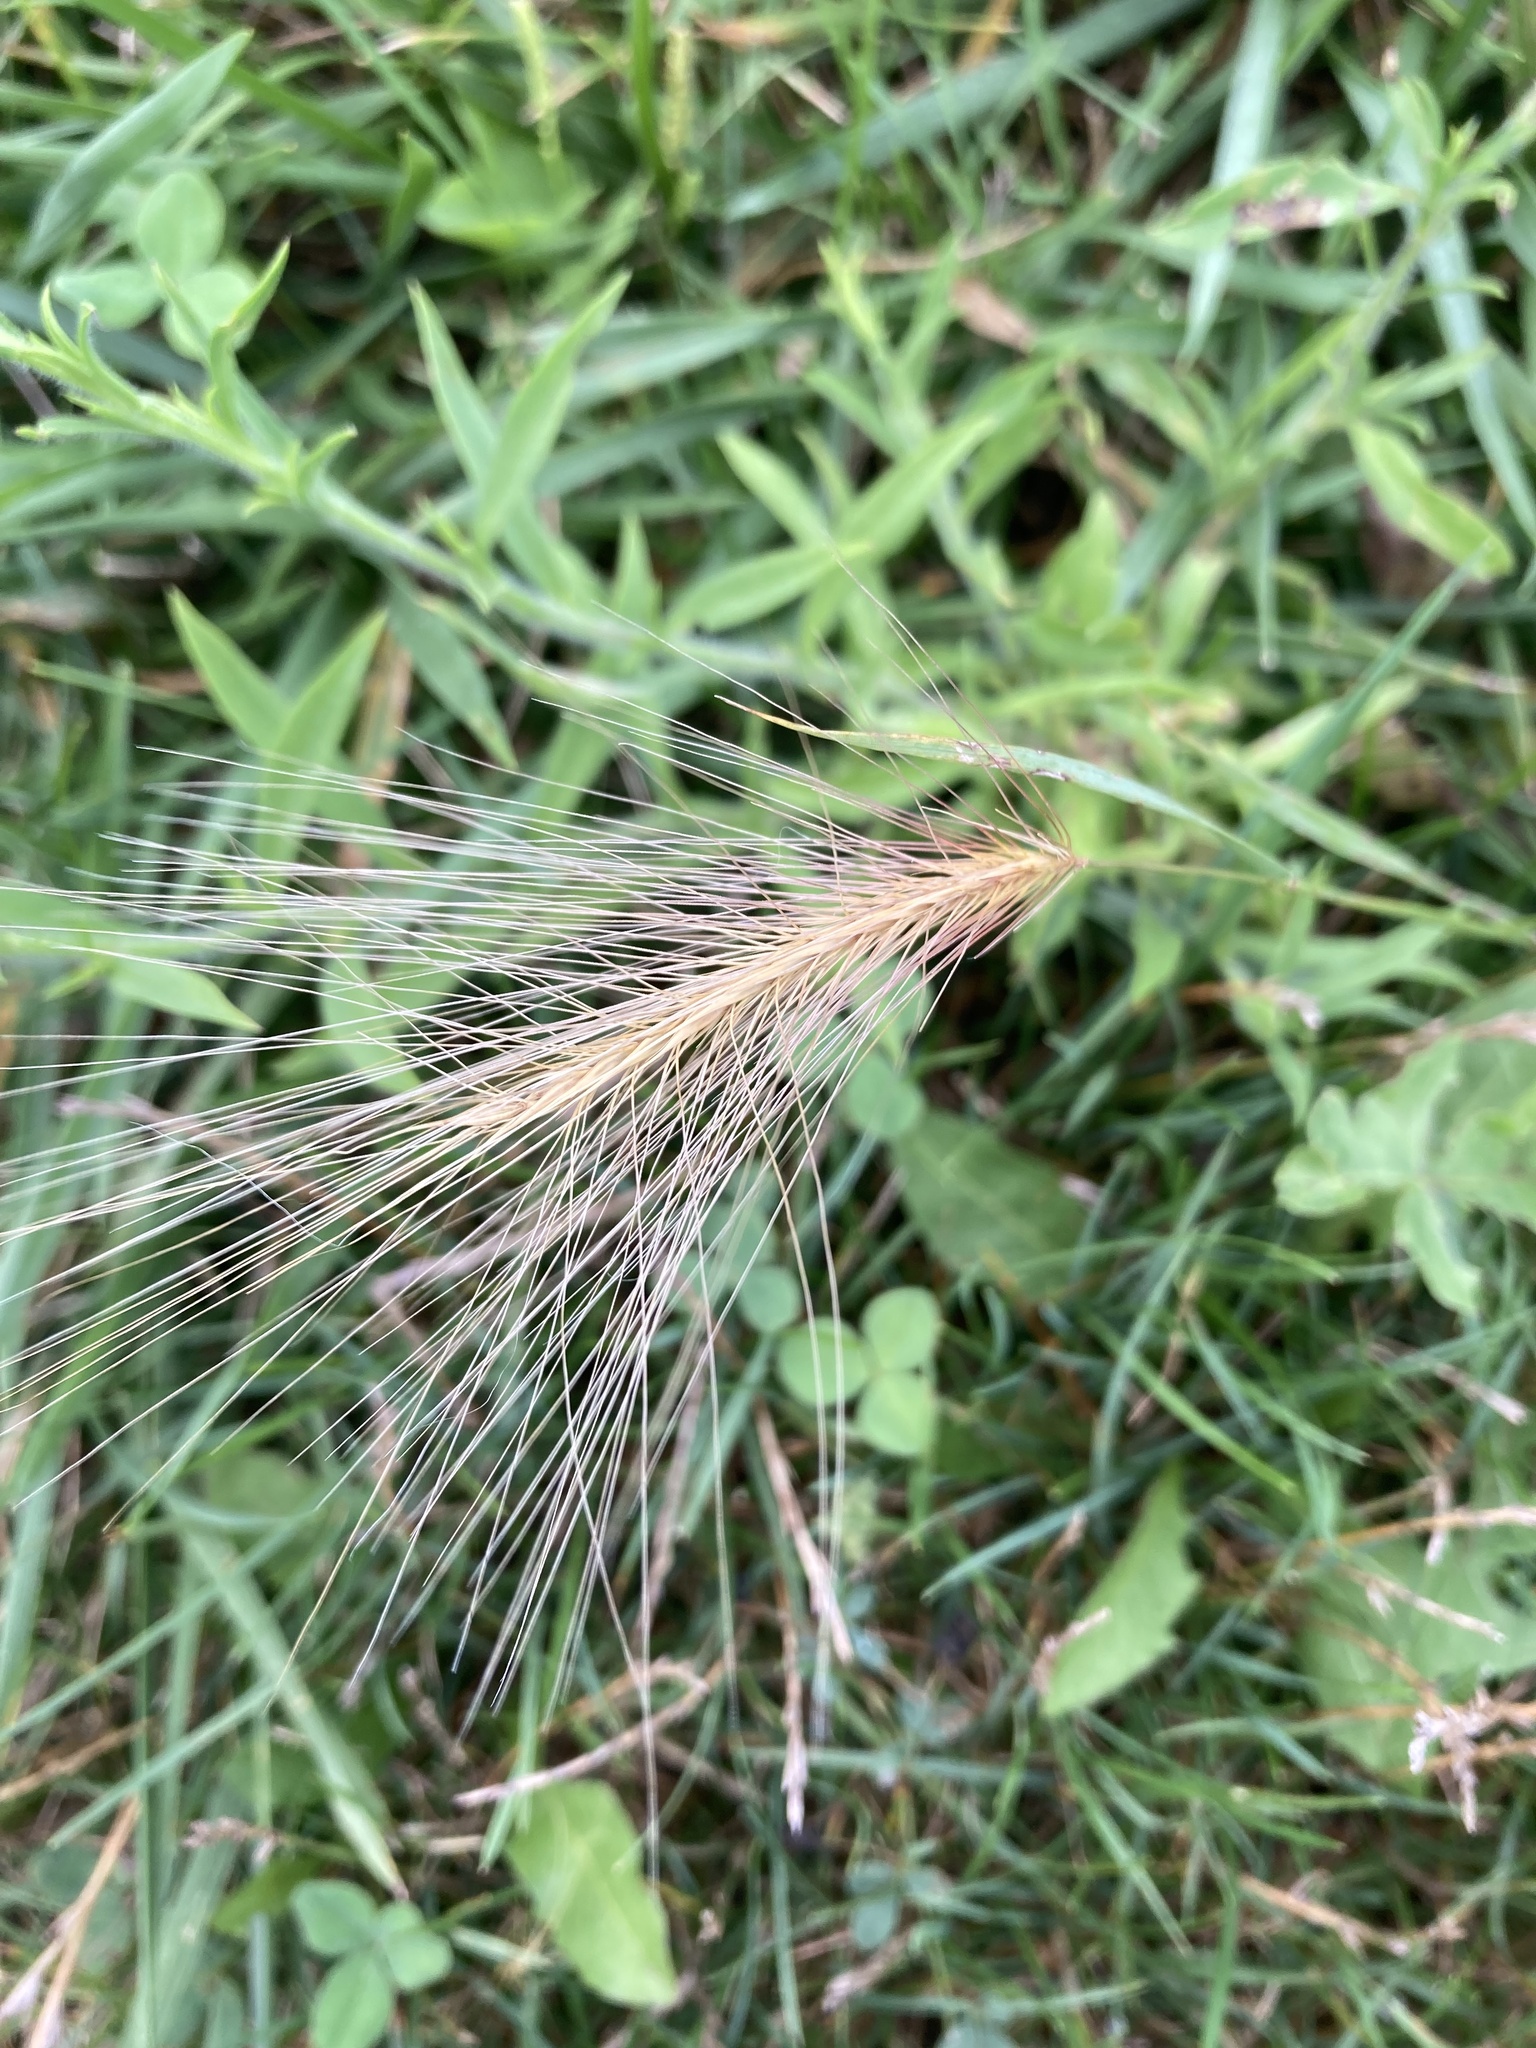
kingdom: Plantae
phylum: Tracheophyta
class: Liliopsida
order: Poales
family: Poaceae
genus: Hordeum
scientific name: Hordeum jubatum
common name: Foxtail barley
